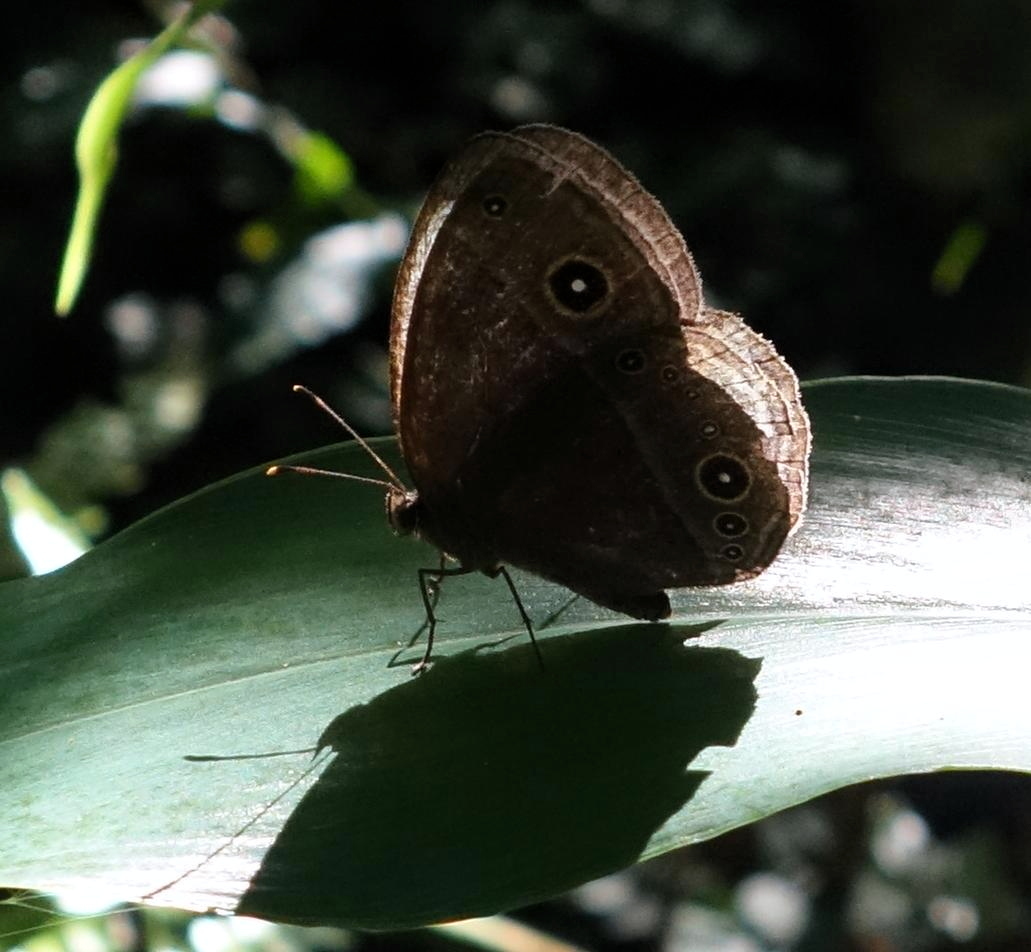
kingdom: Animalia
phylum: Arthropoda
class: Insecta
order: Lepidoptera
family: Nymphalidae
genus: Mycalesis
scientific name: Mycalesis francisca
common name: Lilacine bushbrown
